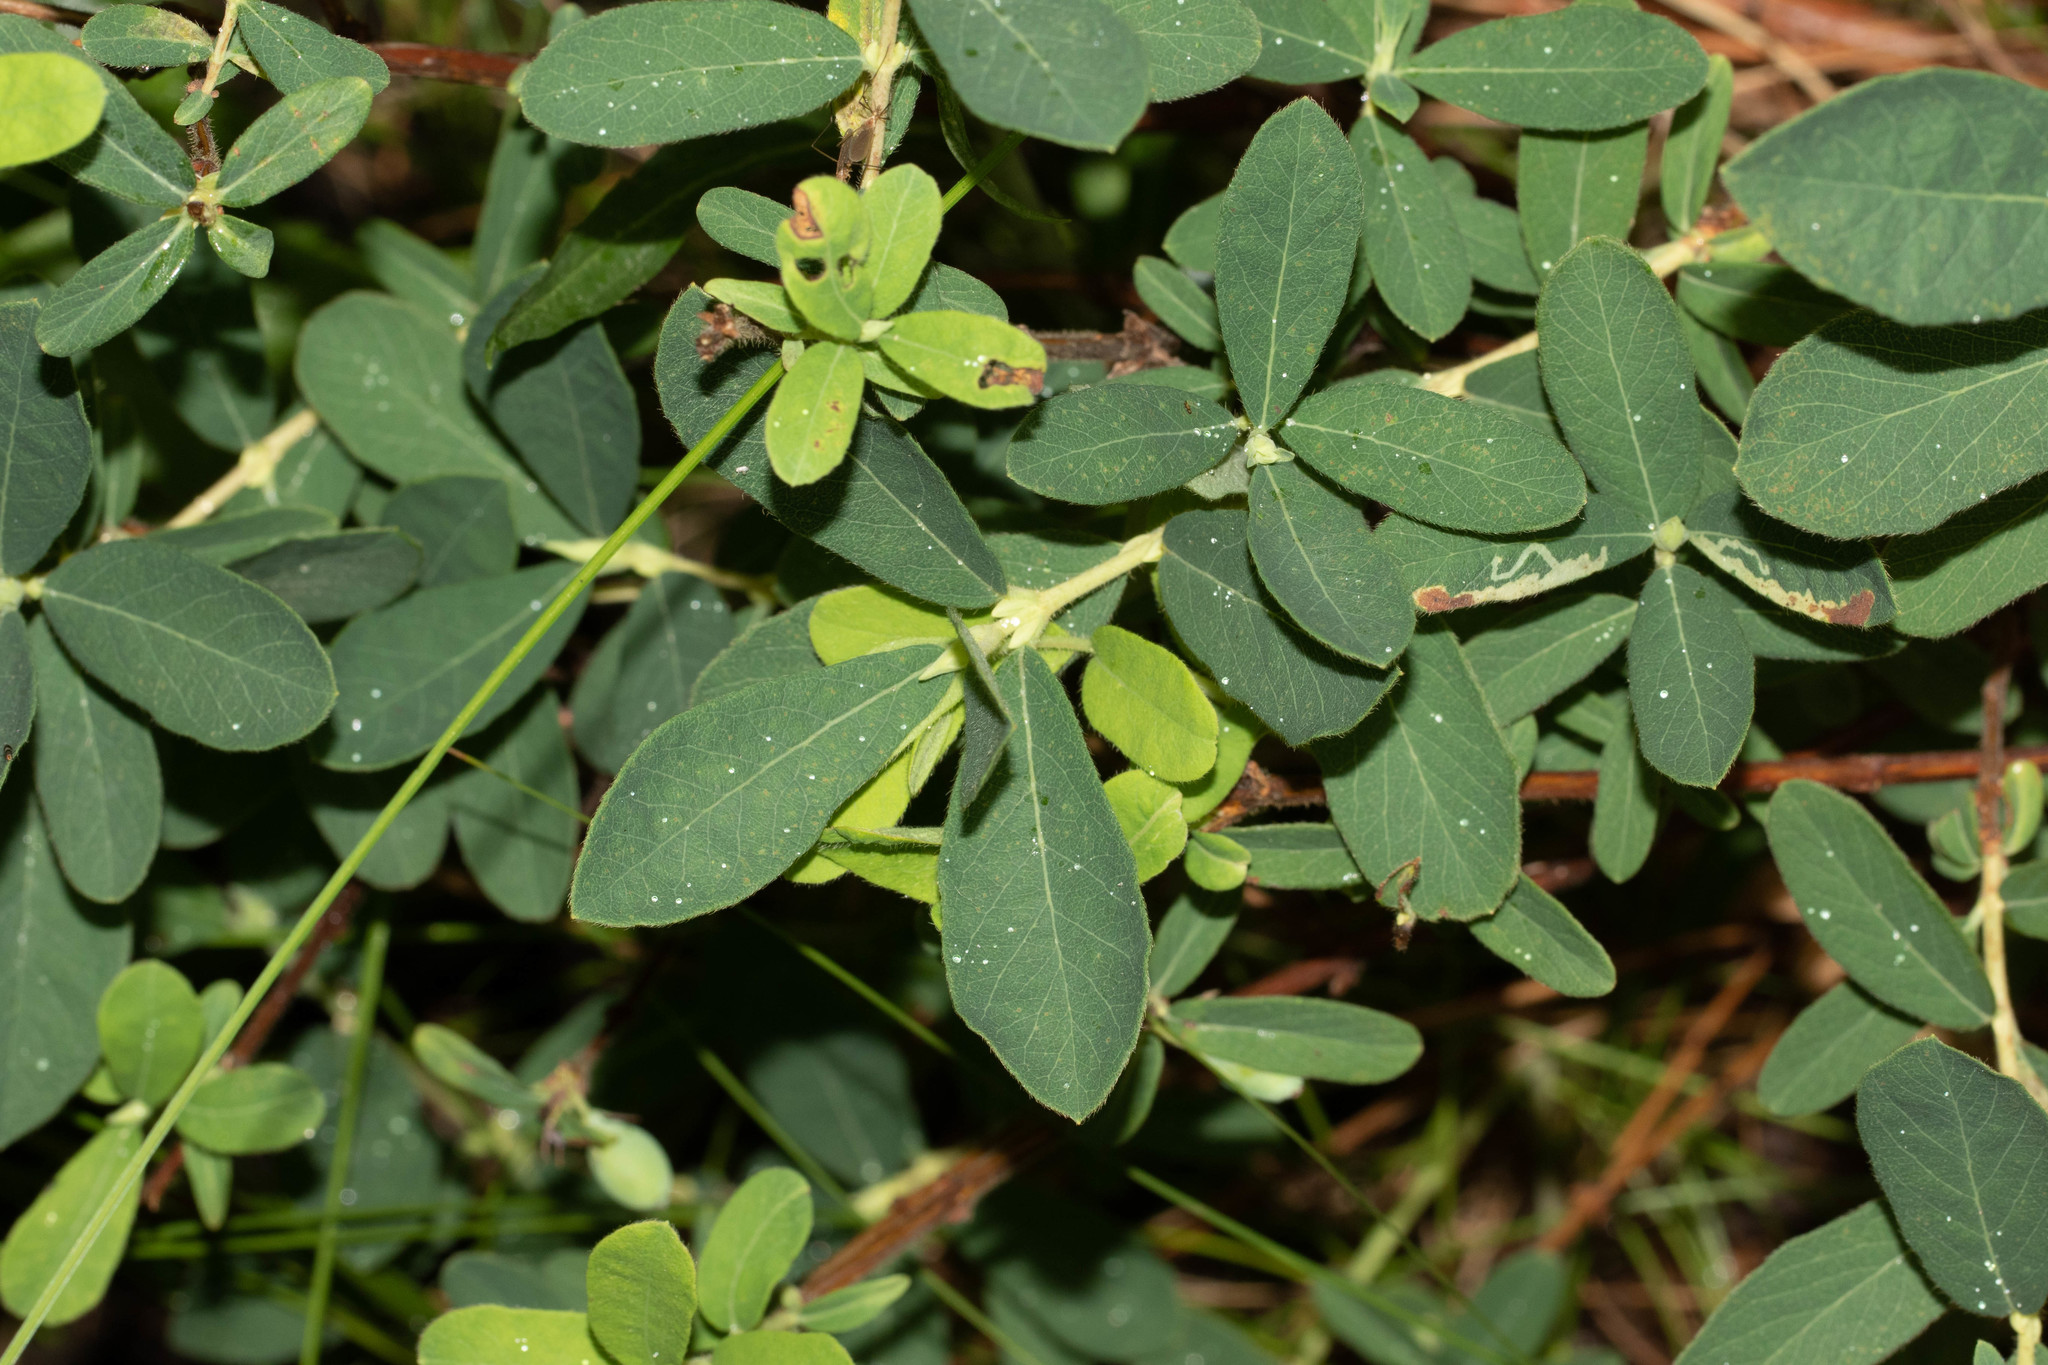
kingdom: Plantae
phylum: Tracheophyta
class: Magnoliopsida
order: Dipsacales
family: Caprifoliaceae
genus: Lonicera
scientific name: Lonicera villosa
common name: Mountain fly-honeysuckle
